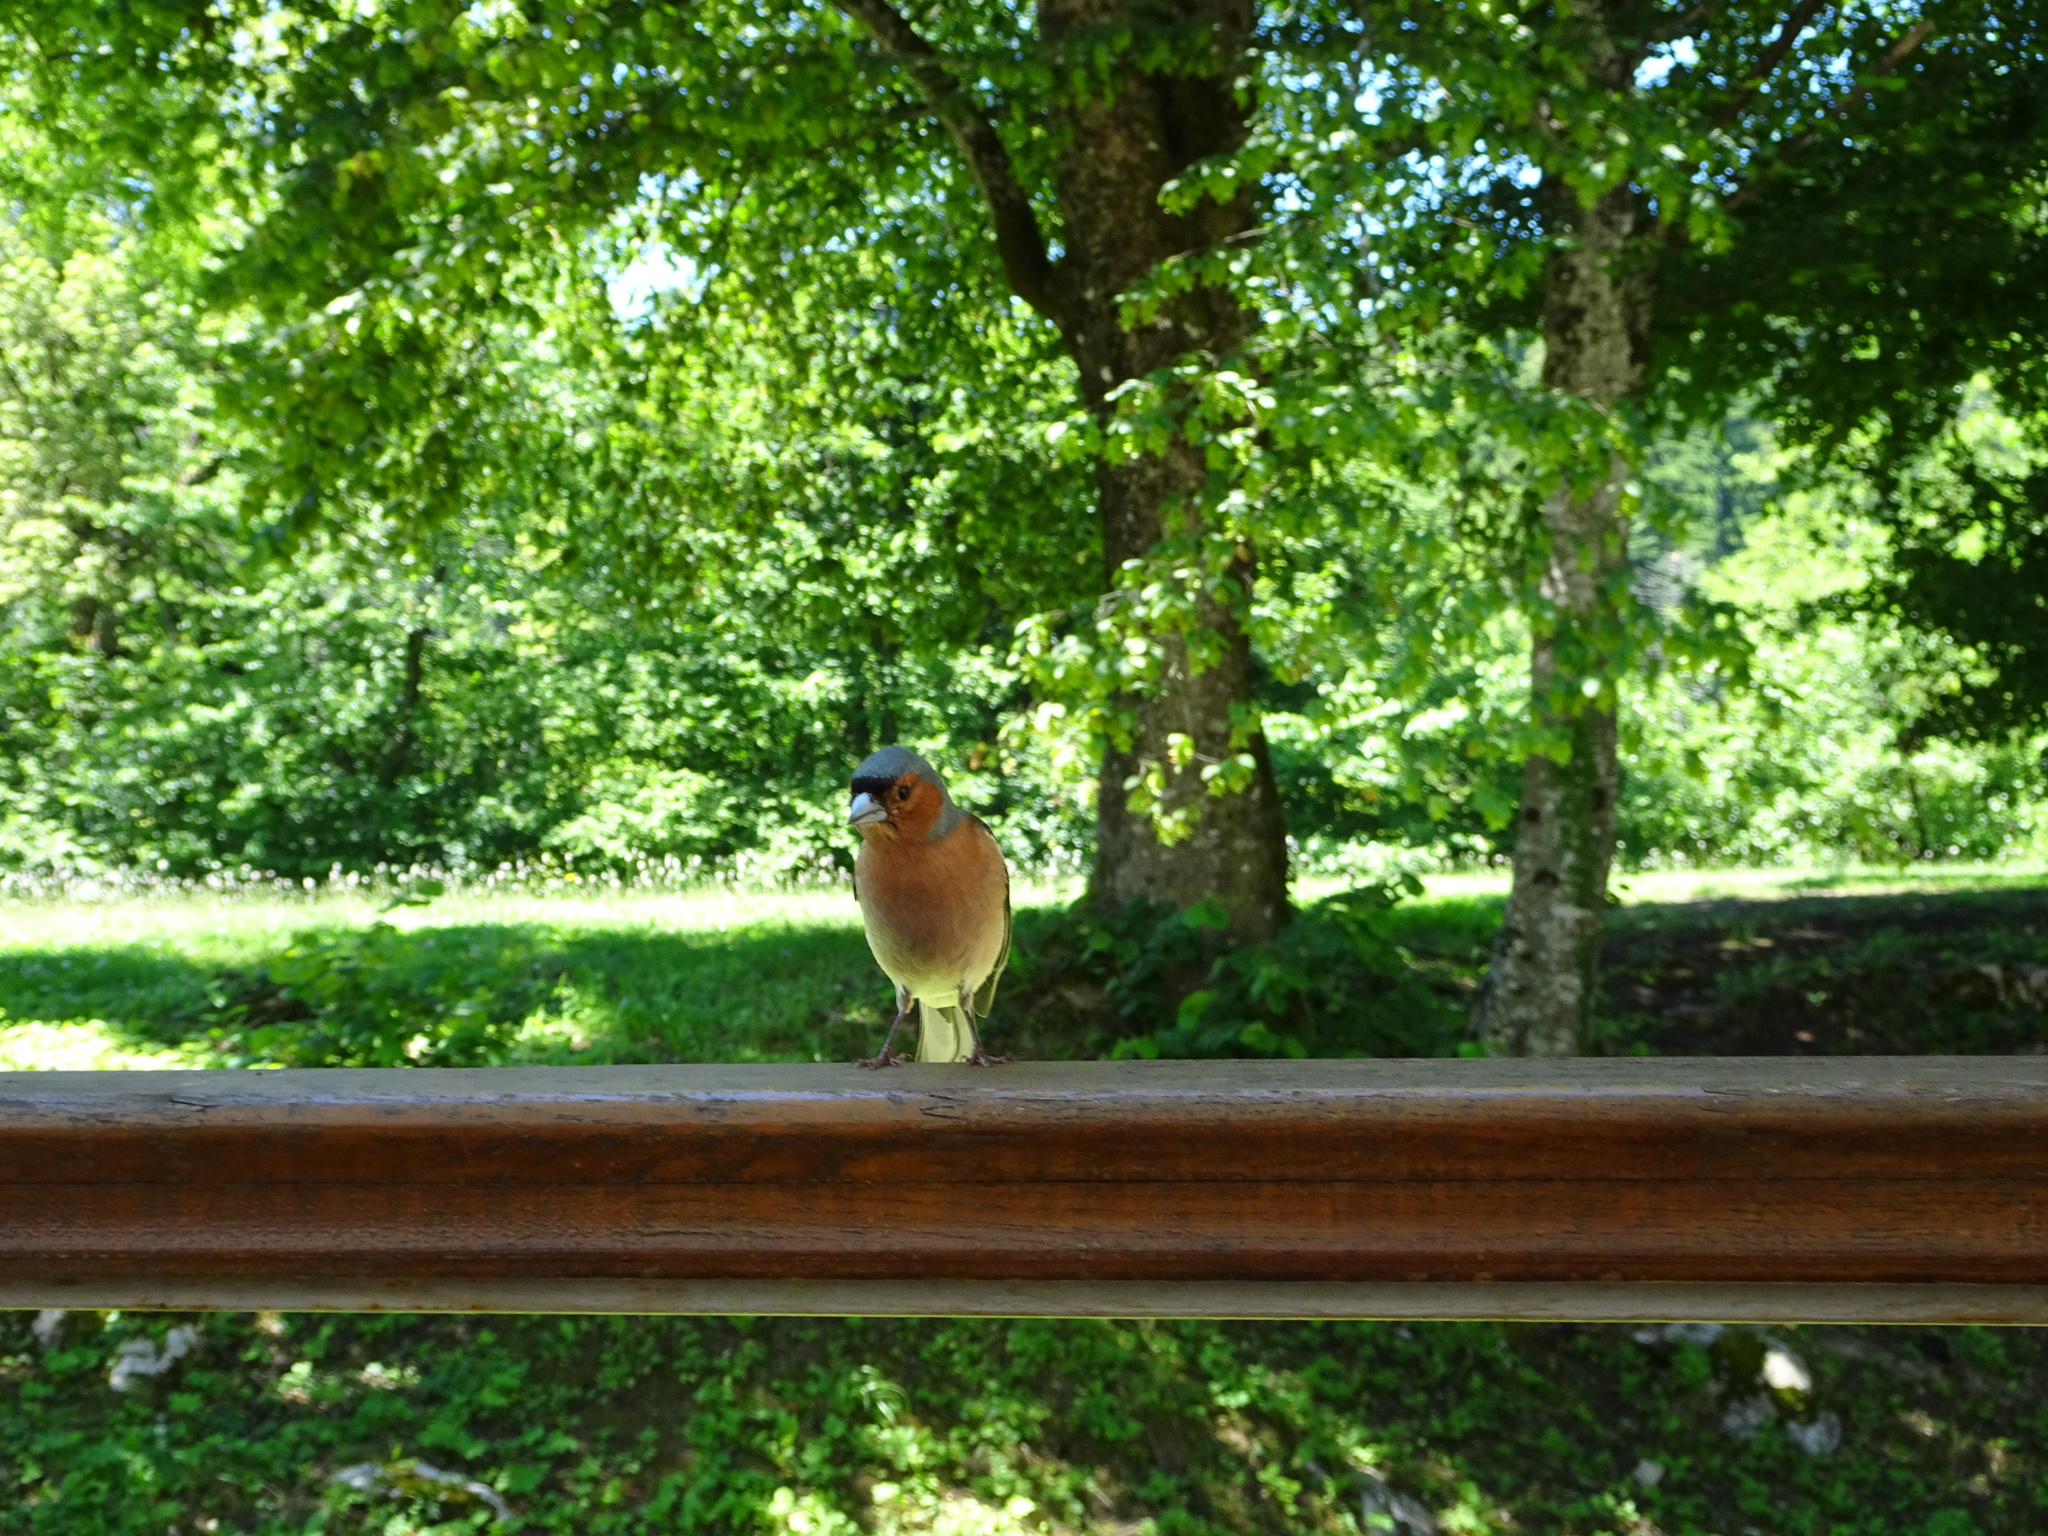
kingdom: Animalia
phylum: Chordata
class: Aves
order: Passeriformes
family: Fringillidae
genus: Fringilla
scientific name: Fringilla coelebs
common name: Common chaffinch
